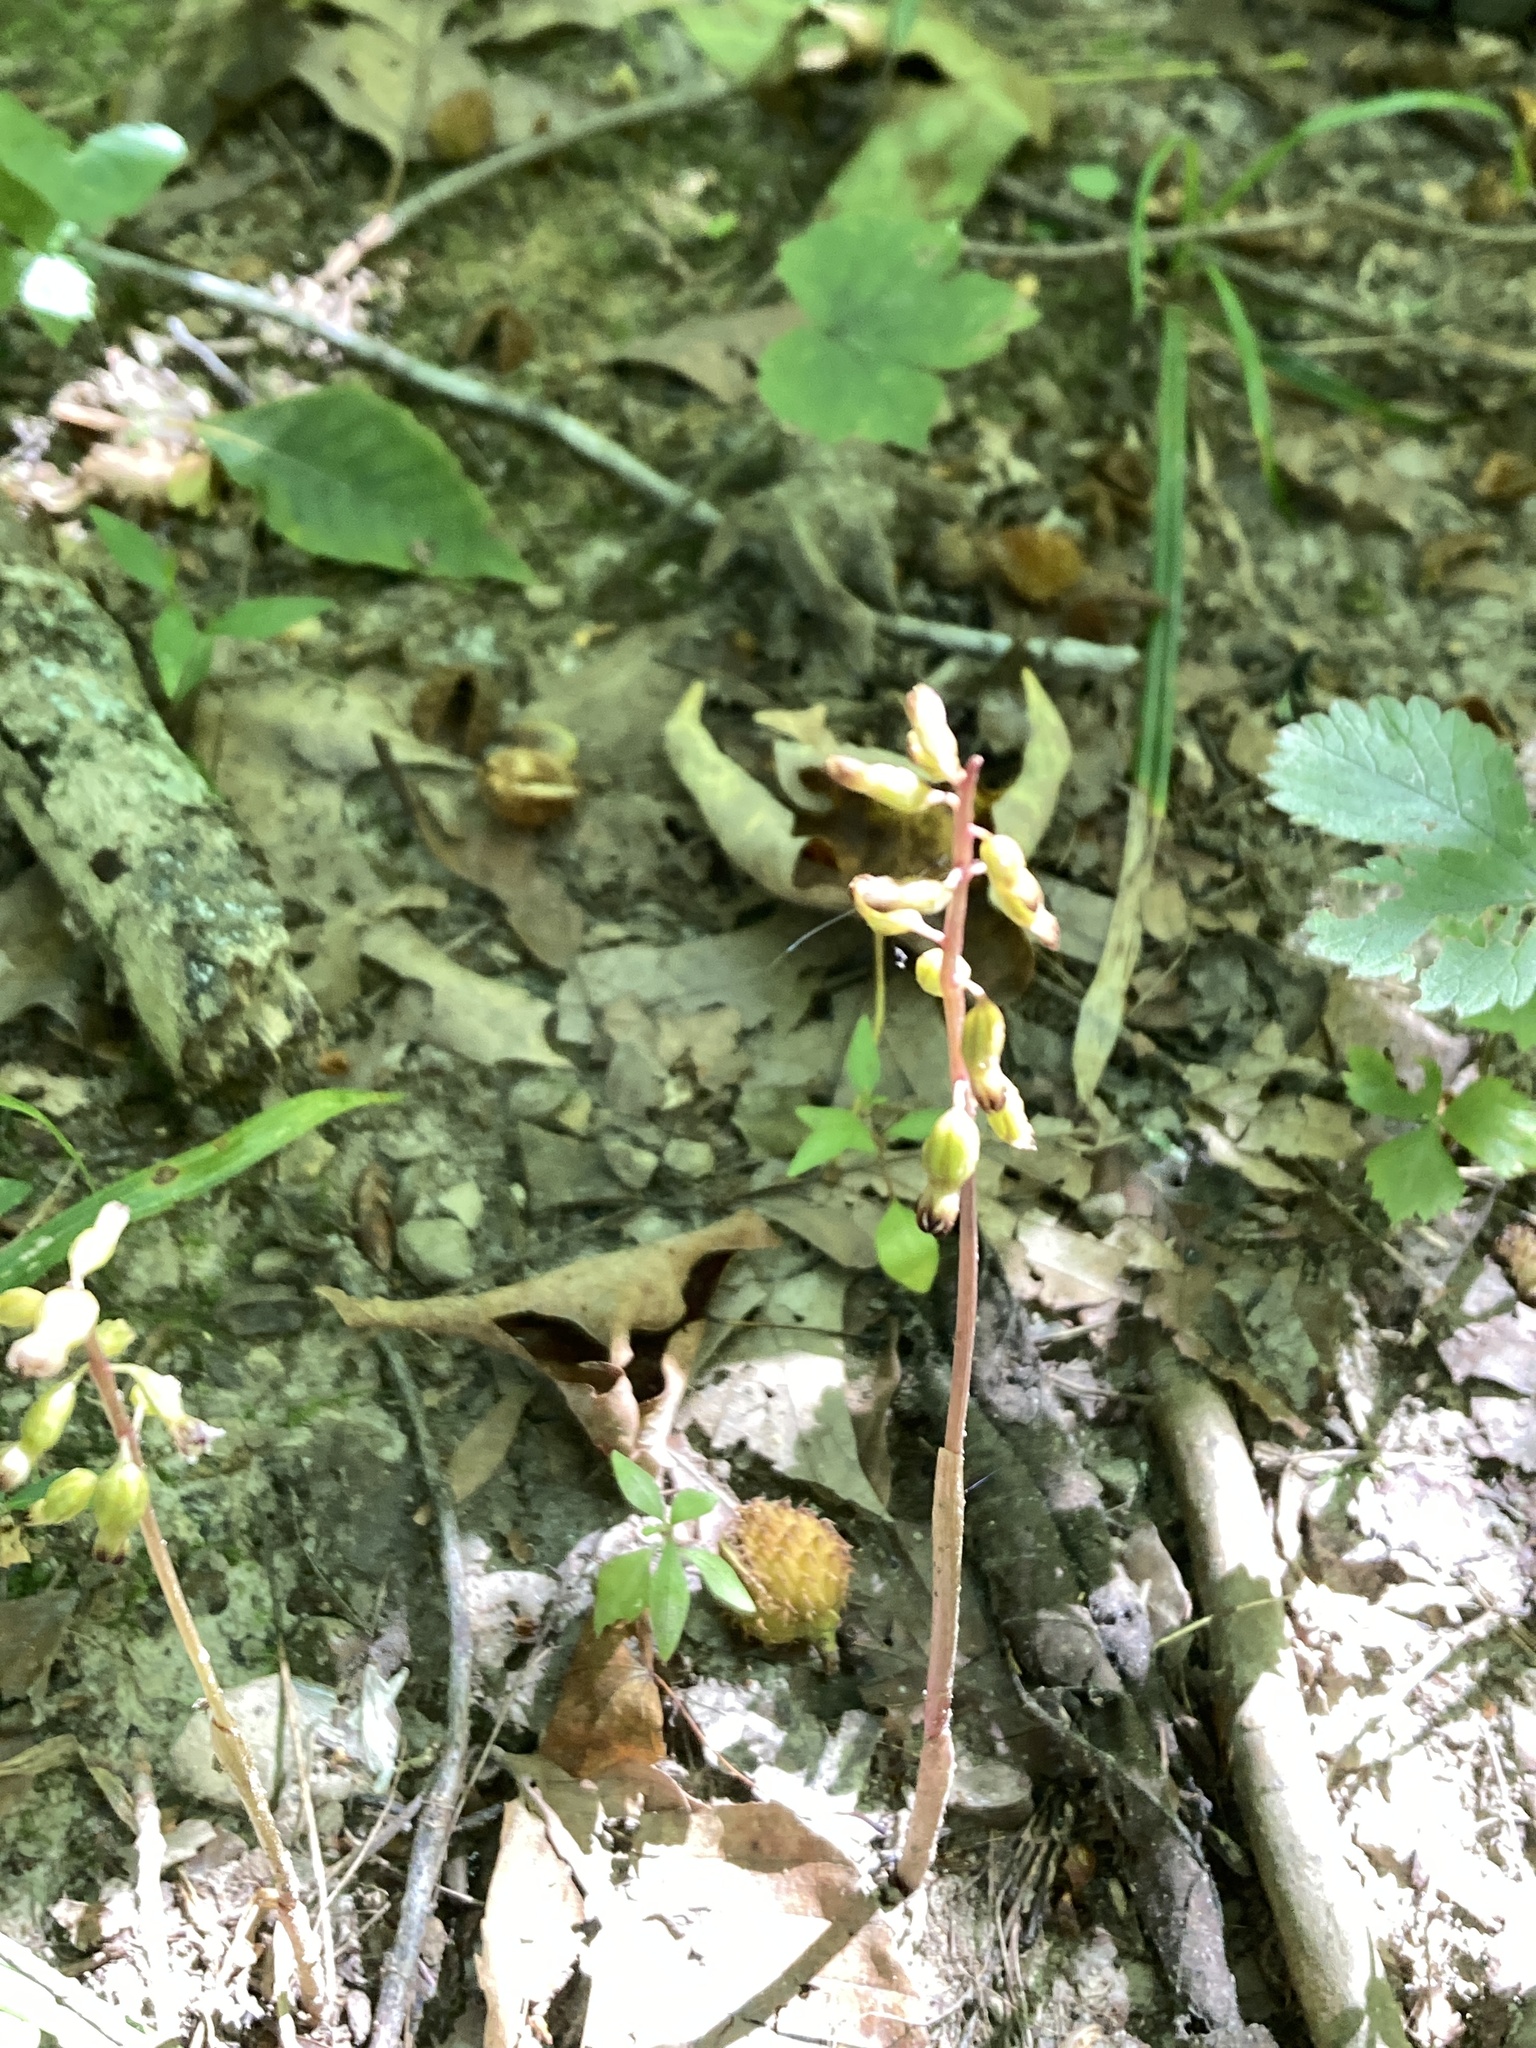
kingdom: Plantae
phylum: Tracheophyta
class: Liliopsida
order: Asparagales
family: Orchidaceae
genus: Corallorhiza
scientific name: Corallorhiza odontorhiza
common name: Autumn coralroot
